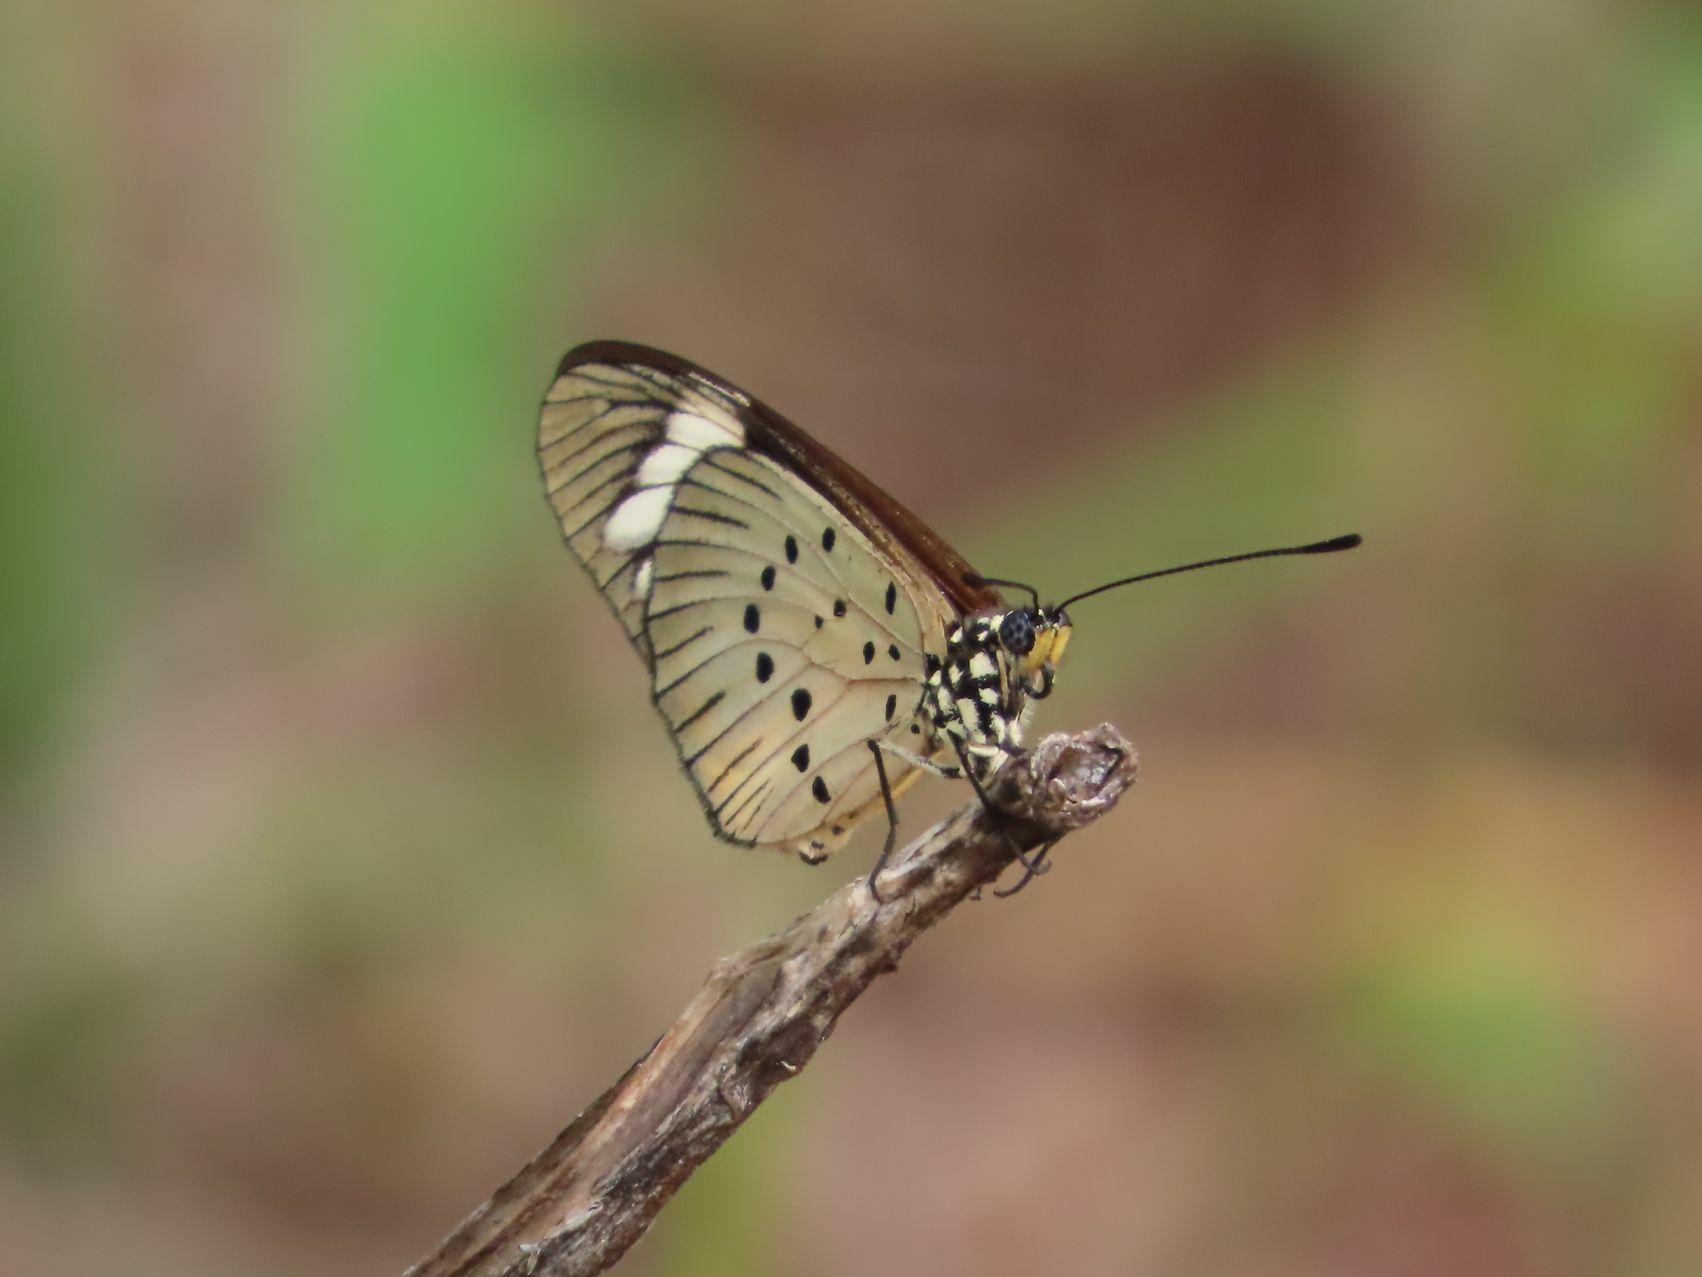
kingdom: Animalia
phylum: Arthropoda
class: Insecta
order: Lepidoptera
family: Nymphalidae
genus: Acraea
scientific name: Acraea Telchinia encedon
